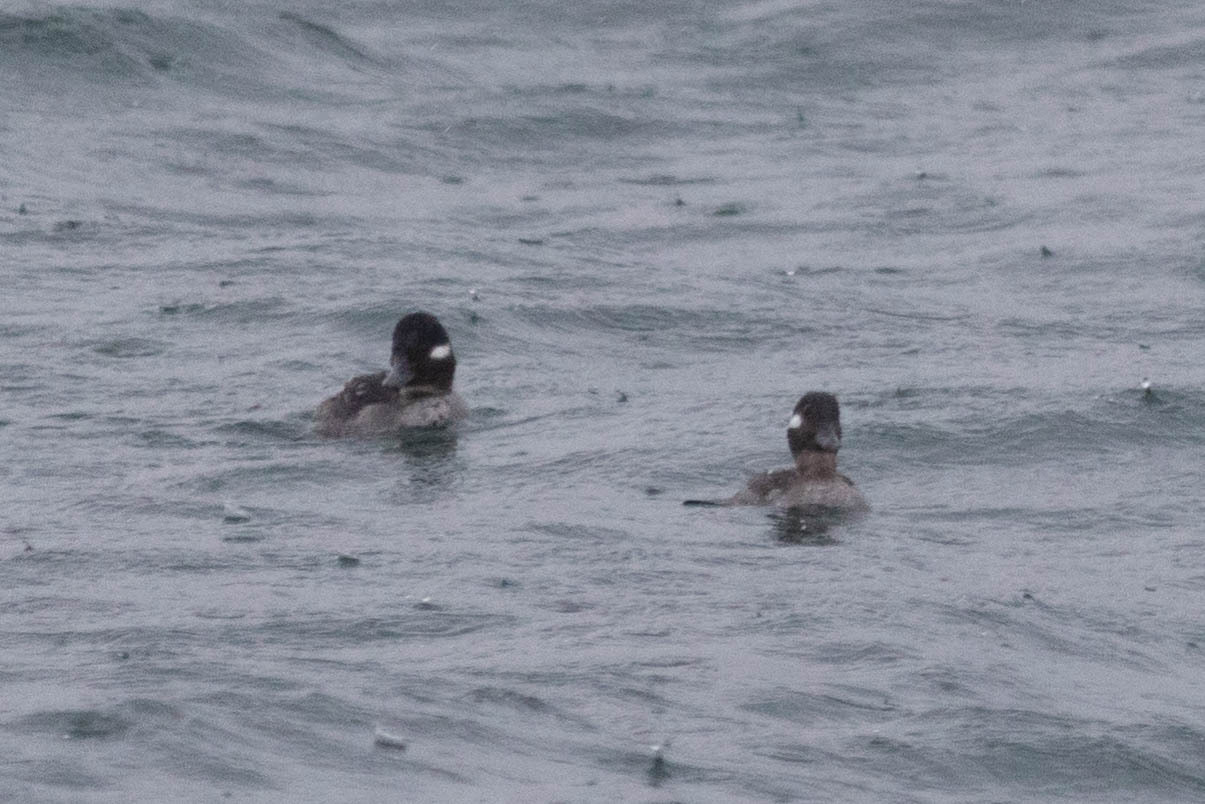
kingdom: Animalia
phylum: Chordata
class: Aves
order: Anseriformes
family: Anatidae
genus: Bucephala
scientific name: Bucephala albeola
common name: Bufflehead
